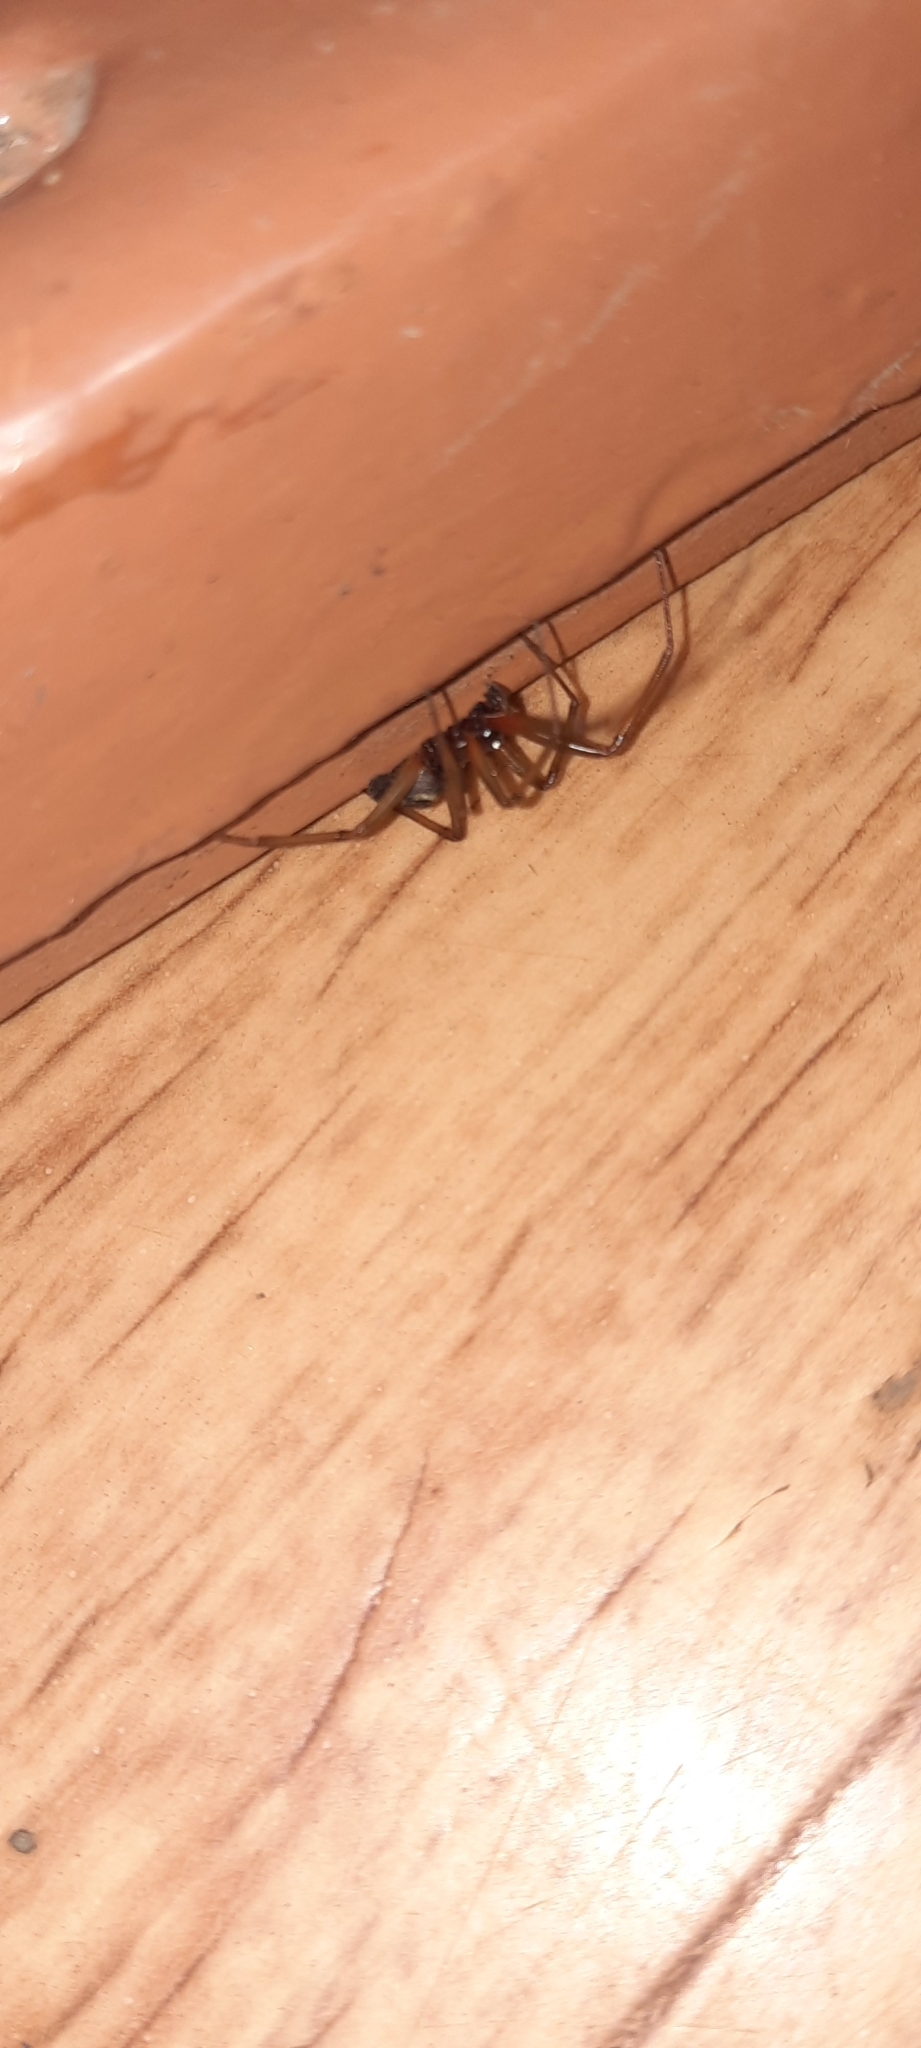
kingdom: Animalia
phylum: Arthropoda
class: Arachnida
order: Araneae
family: Theridiidae
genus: Steatoda
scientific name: Steatoda grossa
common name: False black widow
